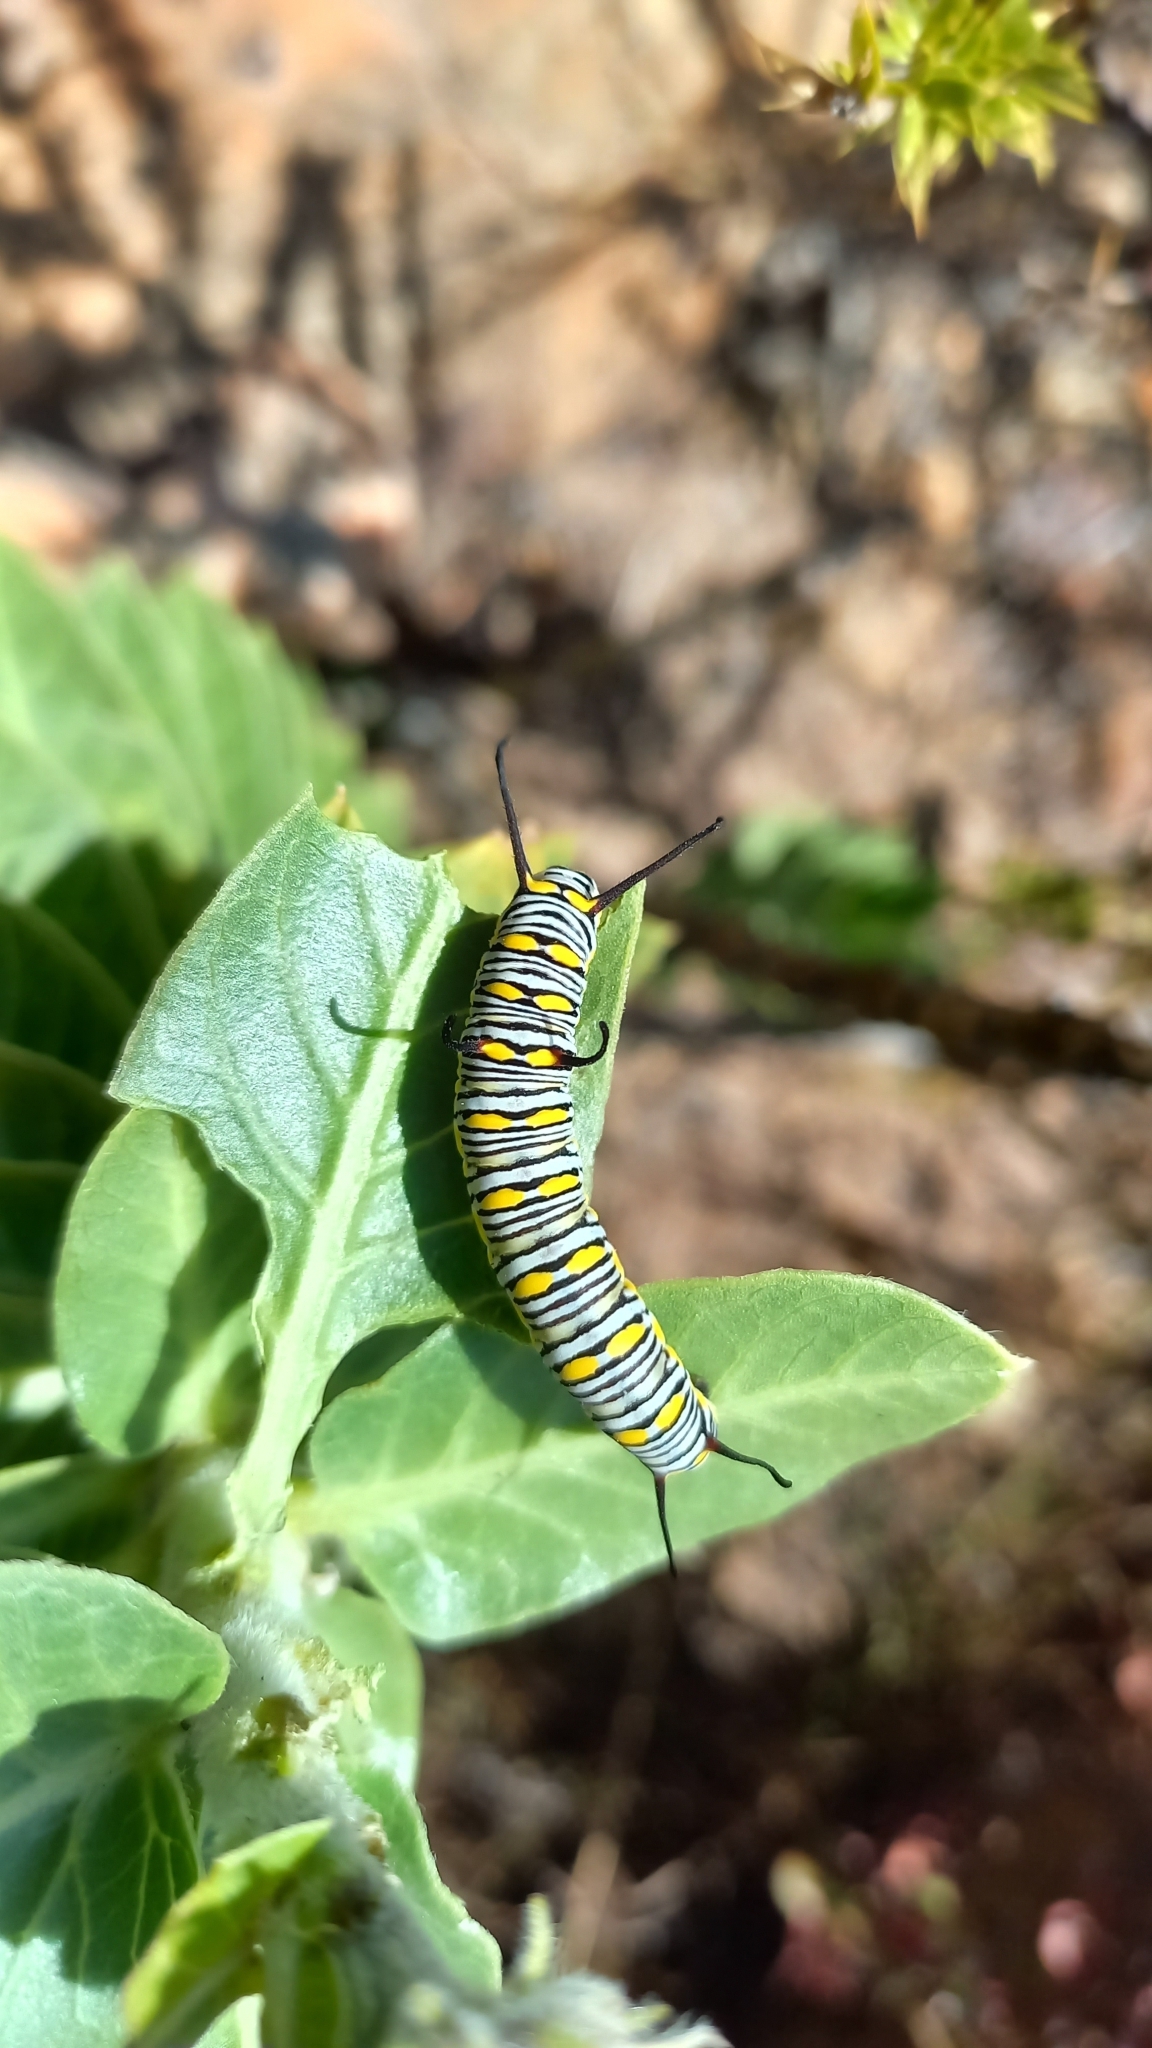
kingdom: Animalia
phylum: Arthropoda
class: Insecta
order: Lepidoptera
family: Nymphalidae
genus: Danaus
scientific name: Danaus chrysippus
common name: Plain tiger
